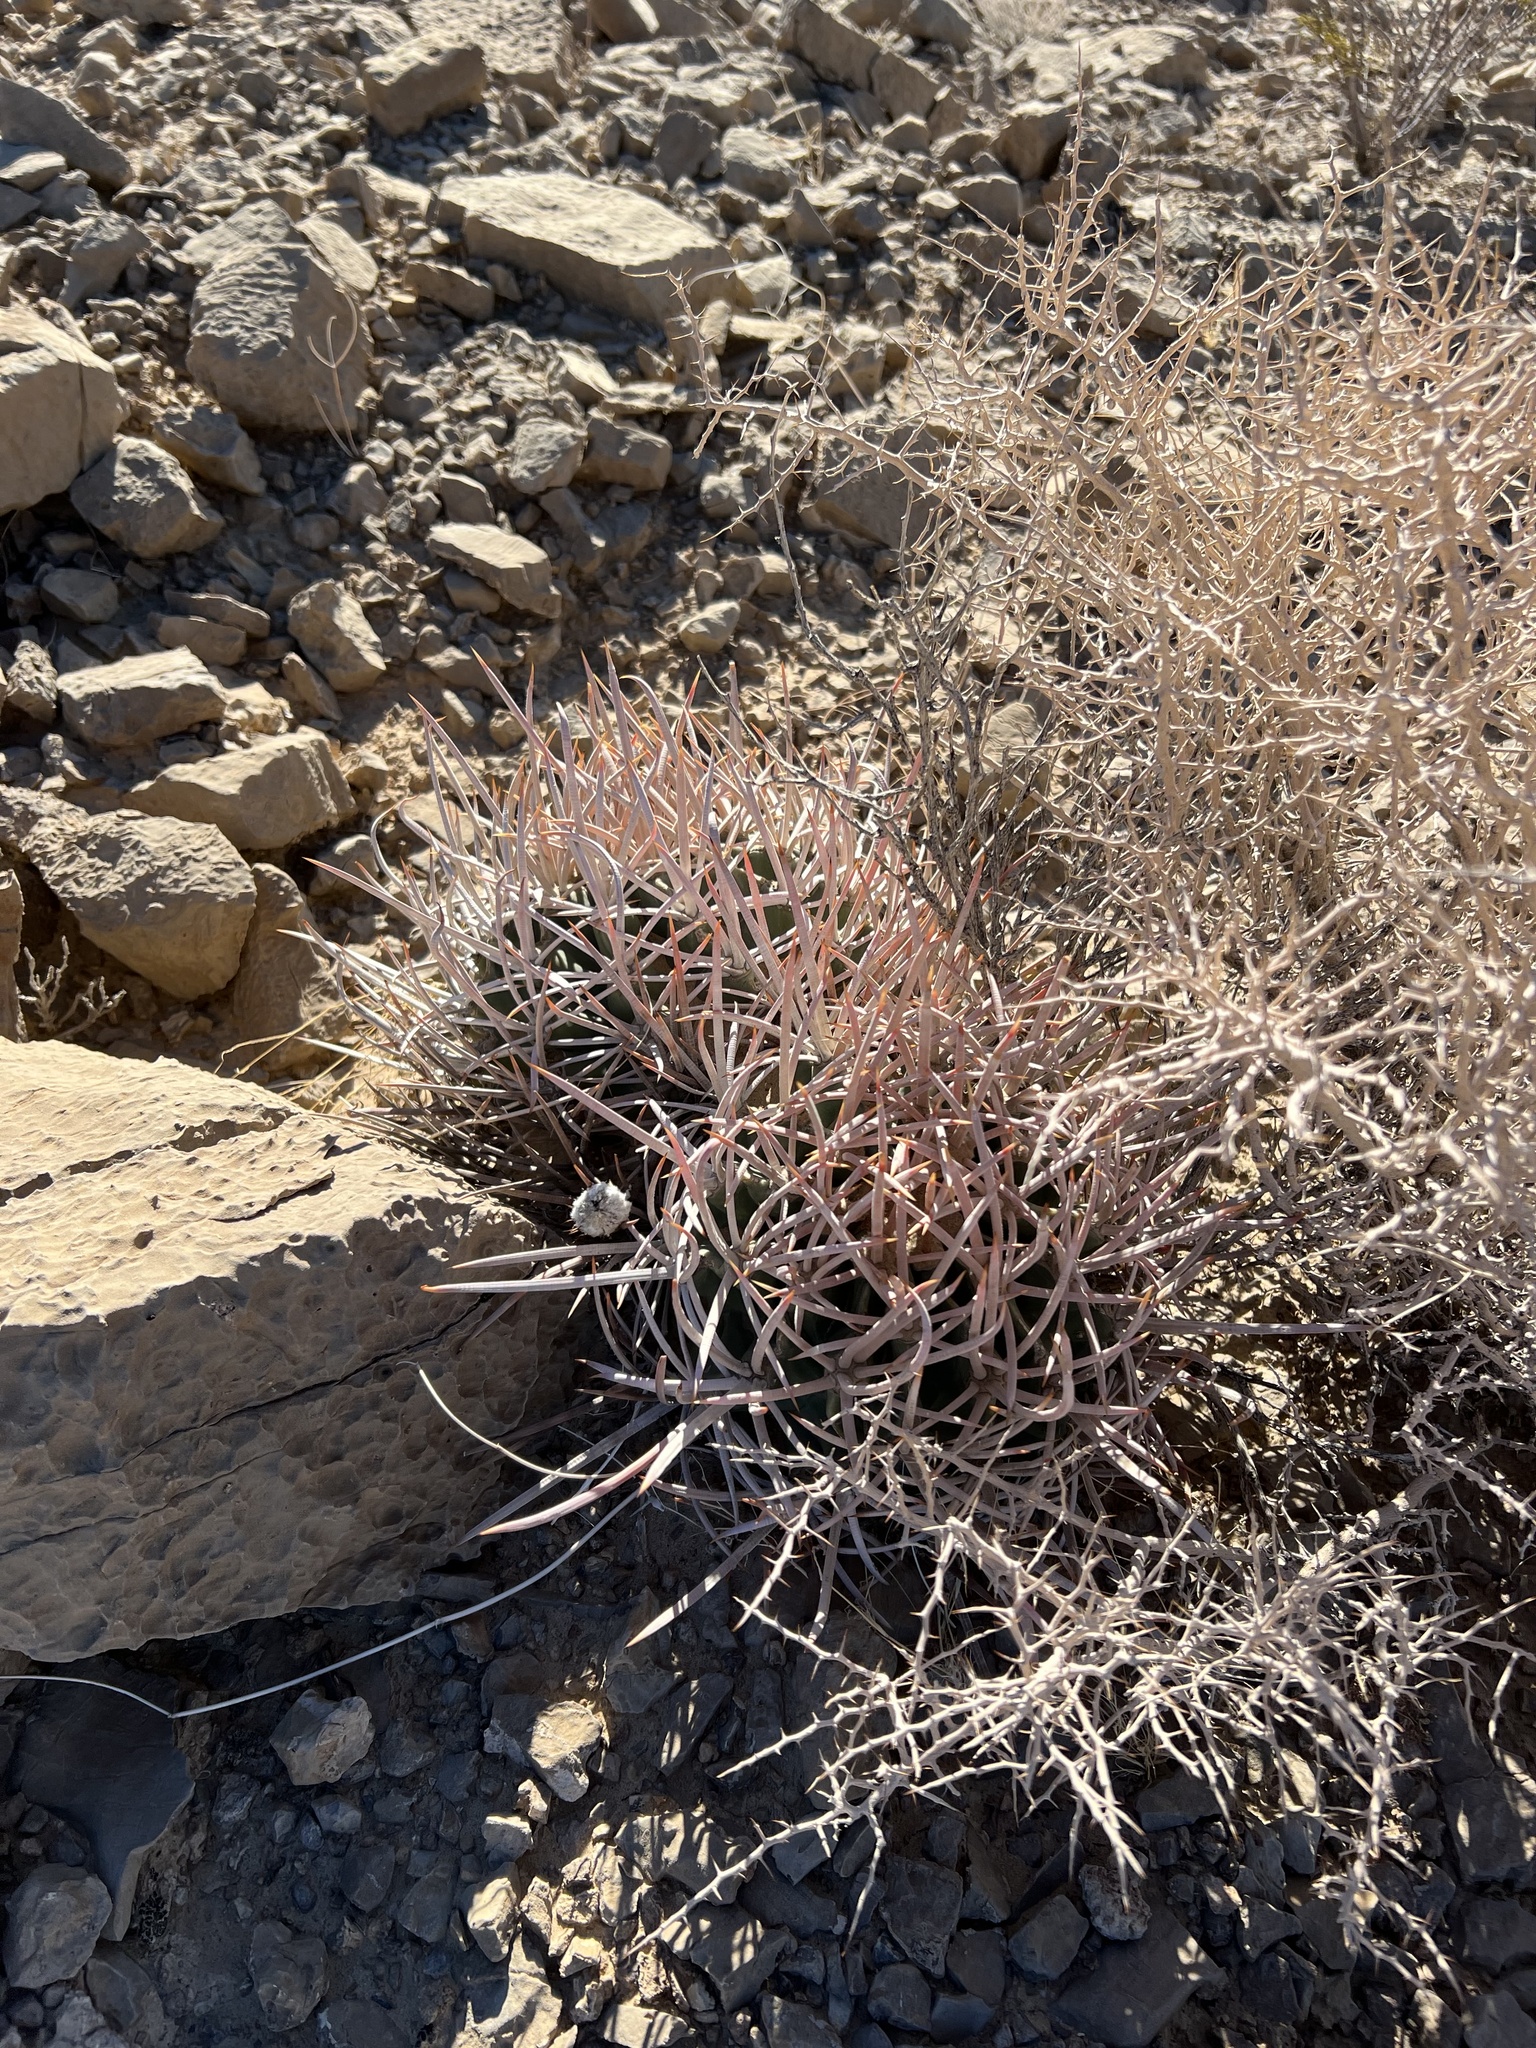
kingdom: Plantae
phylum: Tracheophyta
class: Magnoliopsida
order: Caryophyllales
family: Cactaceae
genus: Echinocactus
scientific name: Echinocactus polycephalus
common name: Cottontop cactus
